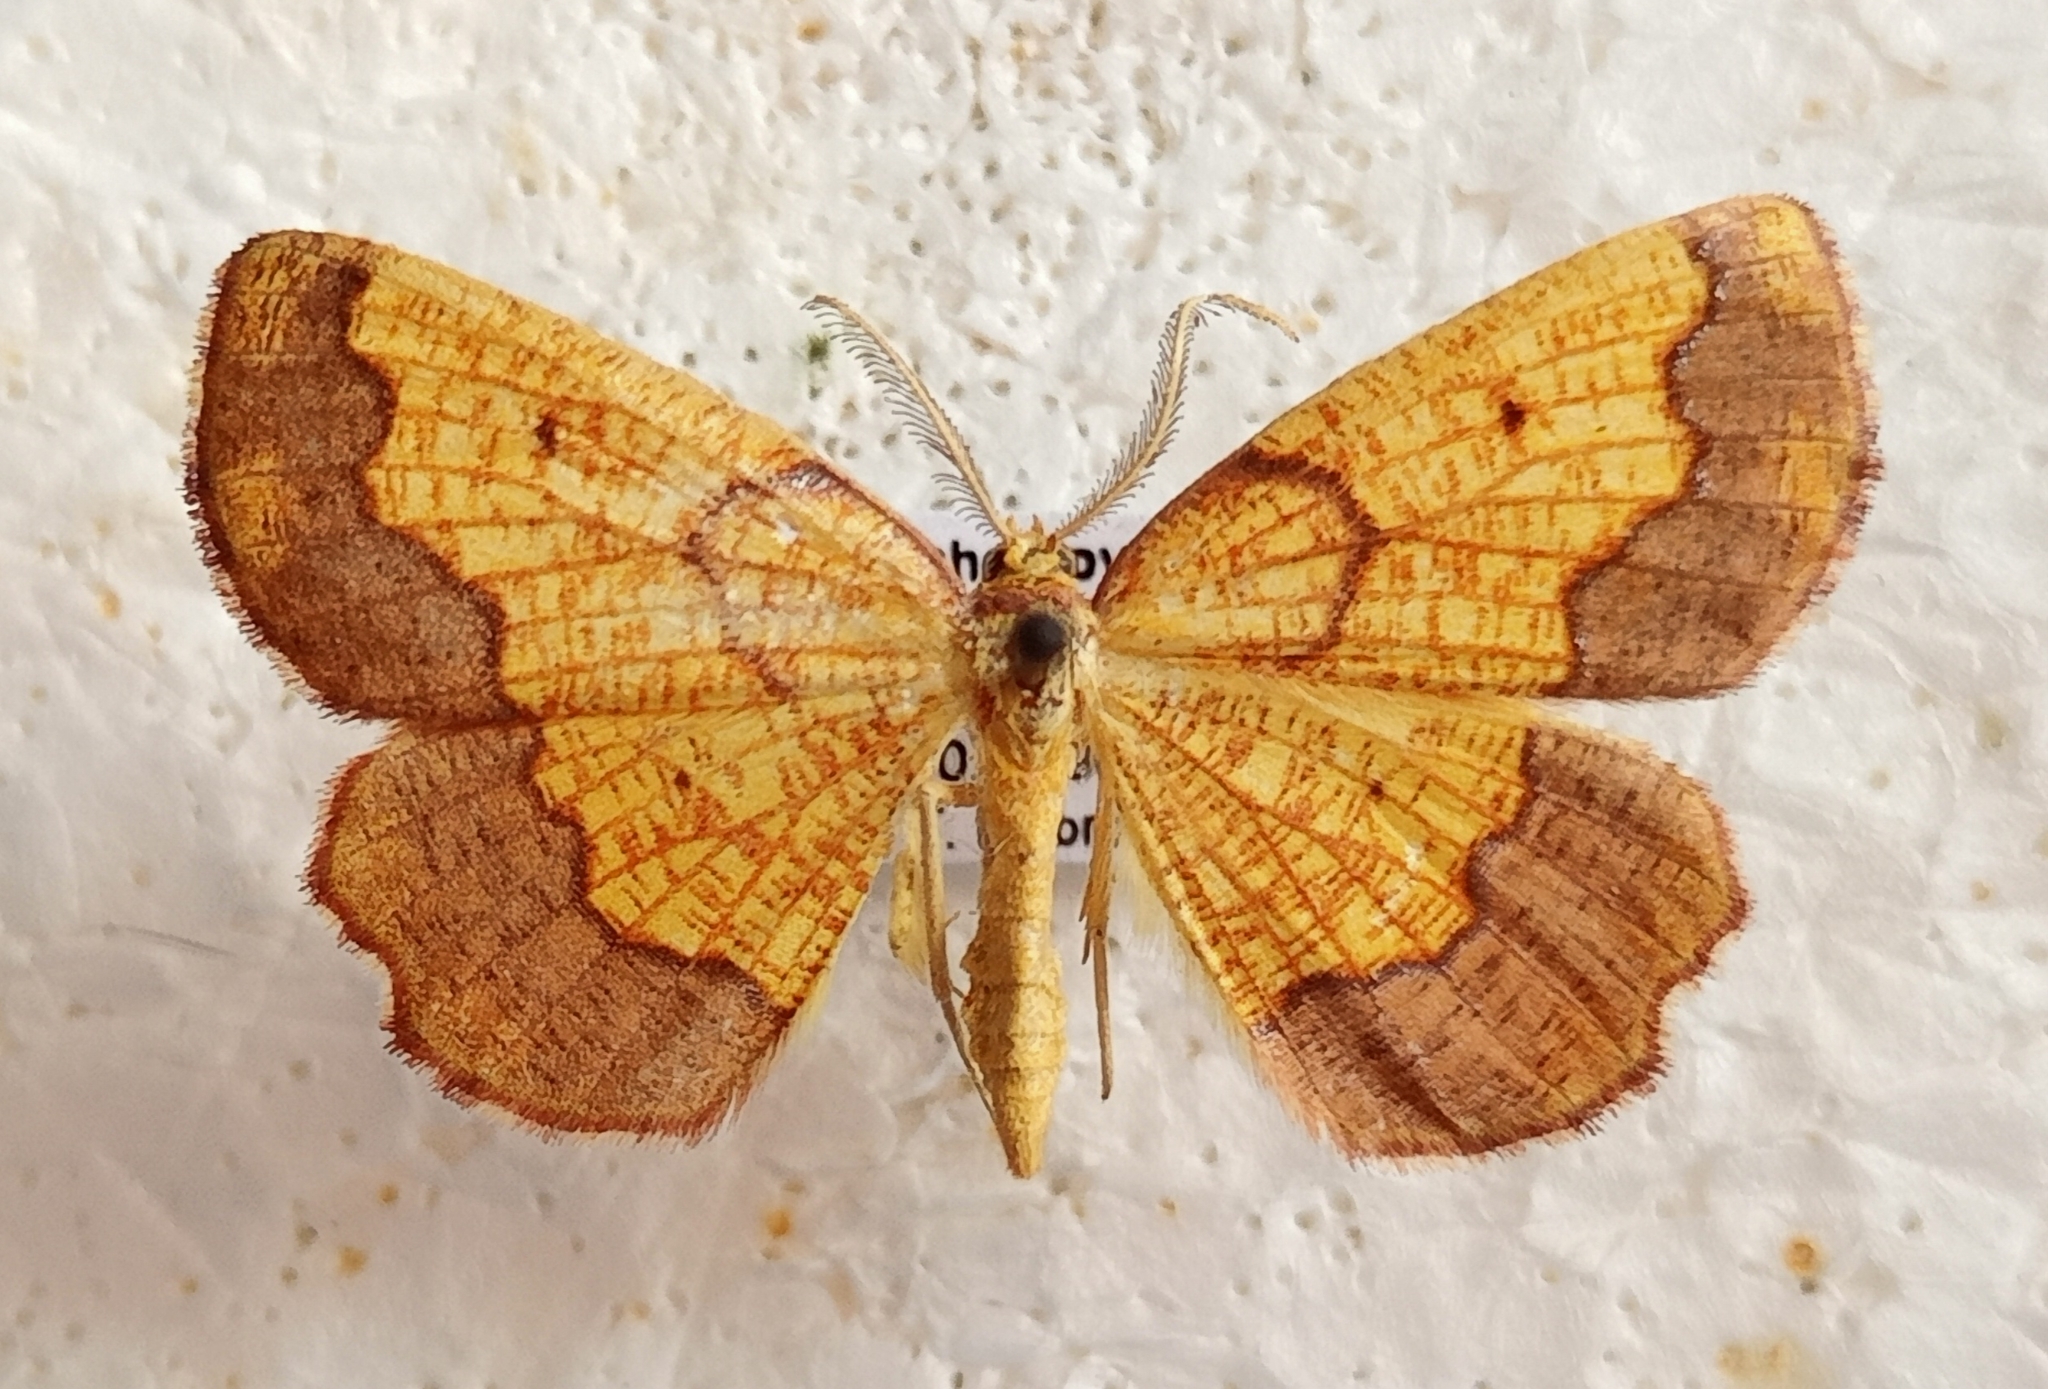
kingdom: Animalia
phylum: Arthropoda
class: Insecta
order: Lepidoptera
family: Geometridae
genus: Epione
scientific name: Epione vespertaria
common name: Dark bordered beauty
